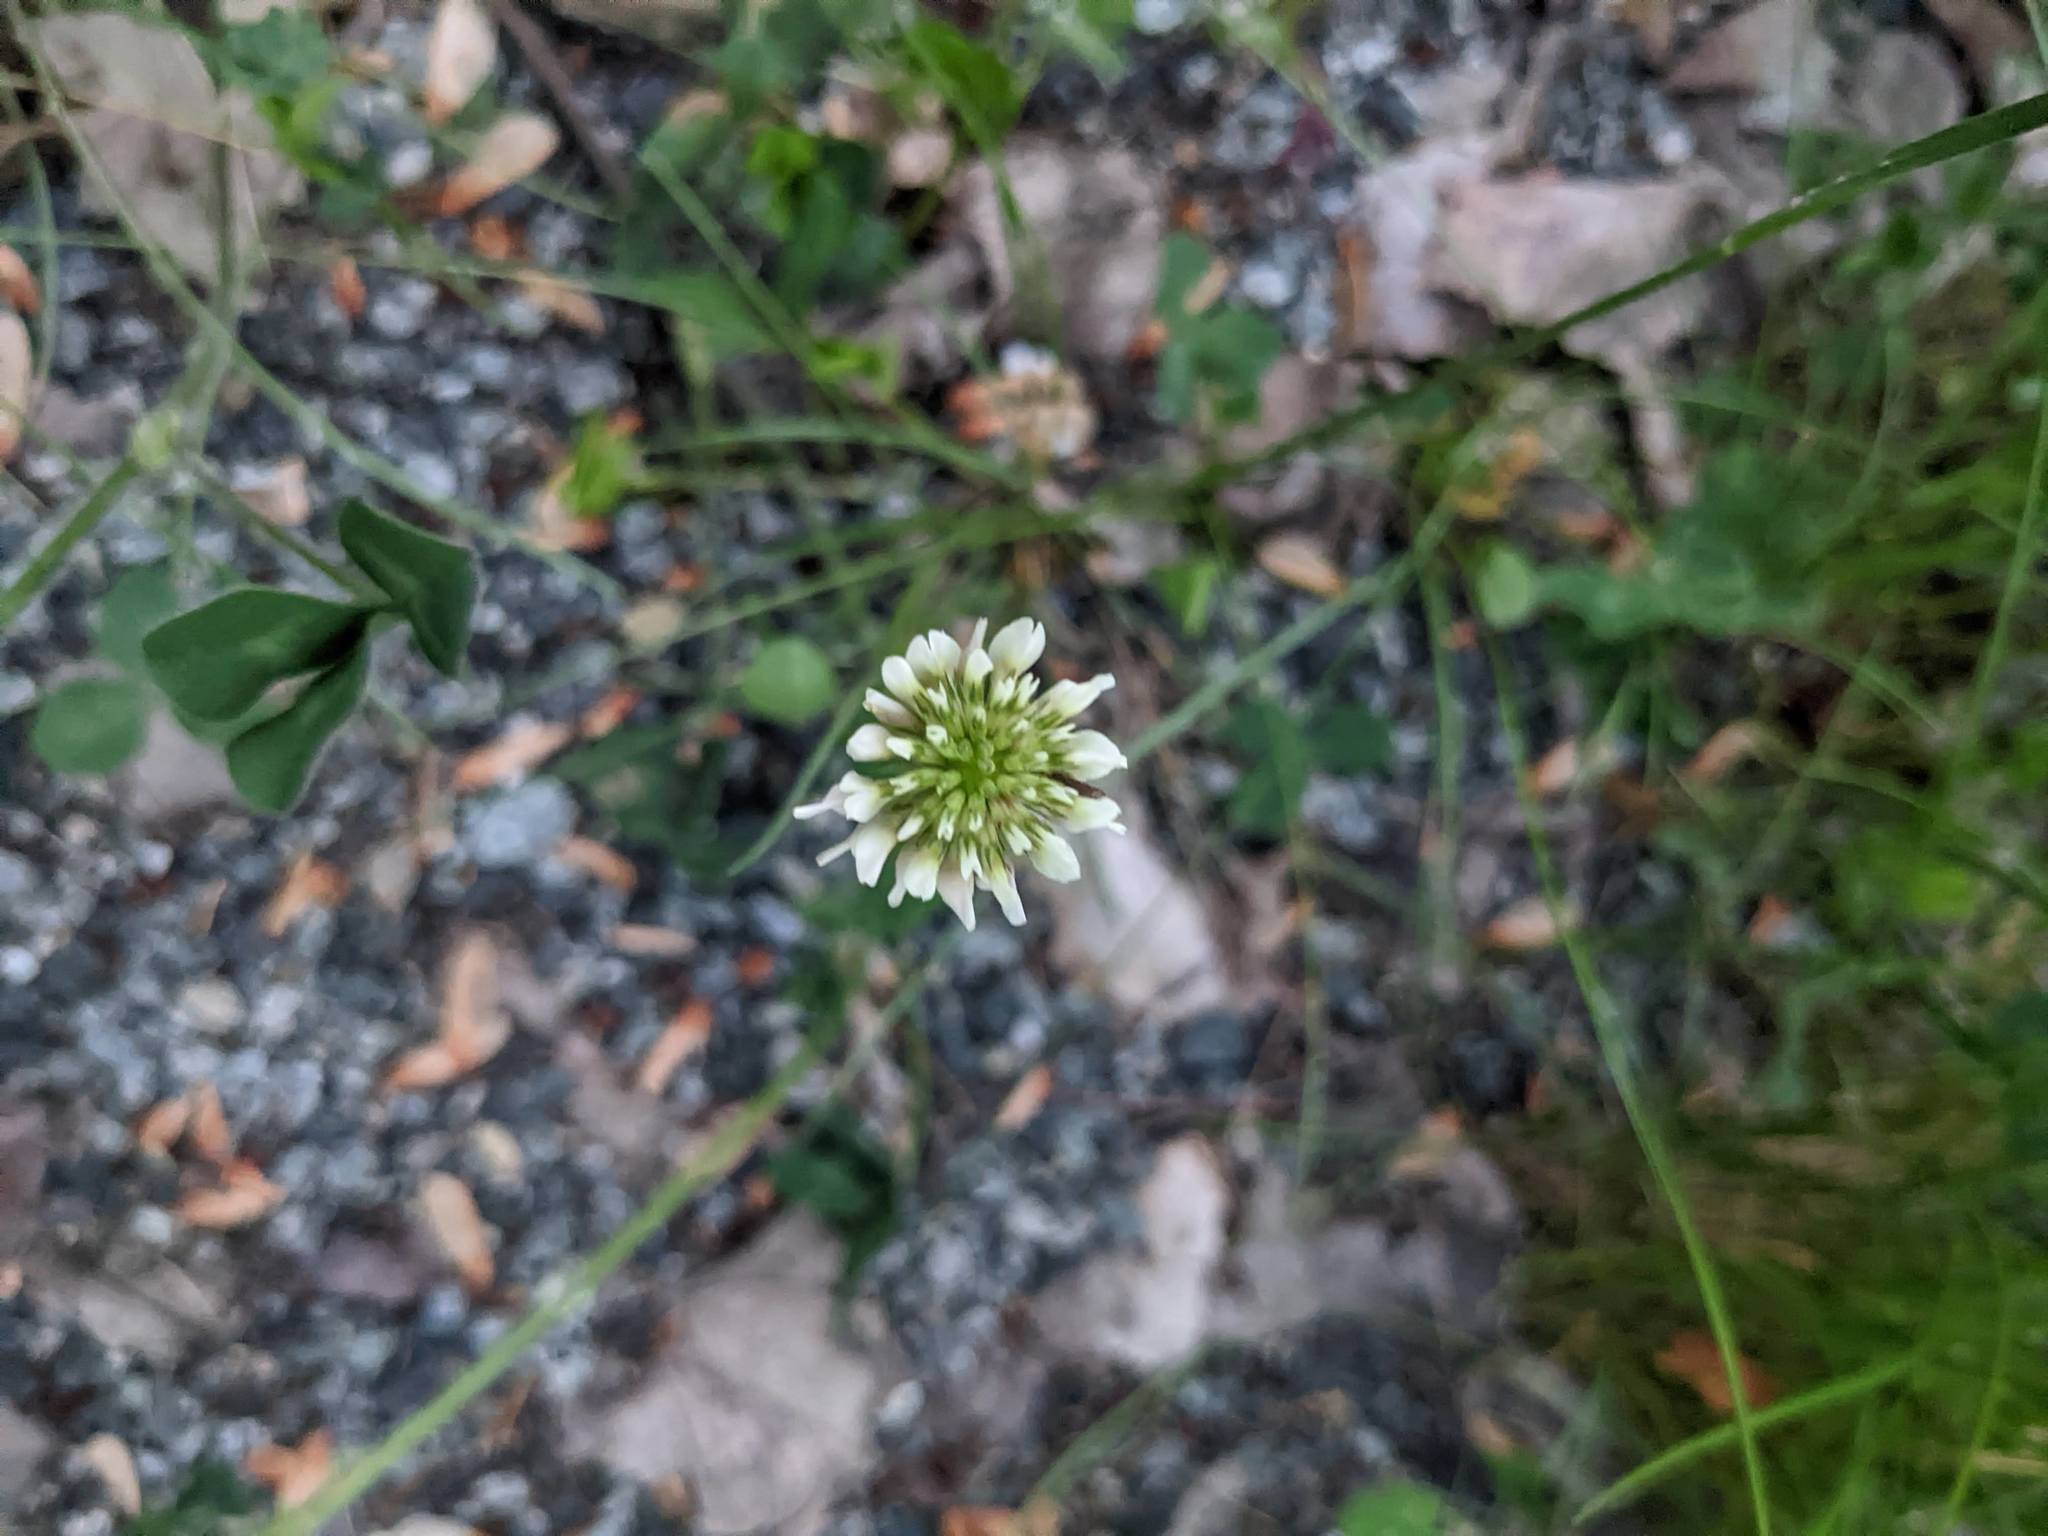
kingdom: Plantae
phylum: Tracheophyta
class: Magnoliopsida
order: Fabales
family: Fabaceae
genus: Trifolium
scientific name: Trifolium repens
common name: White clover
